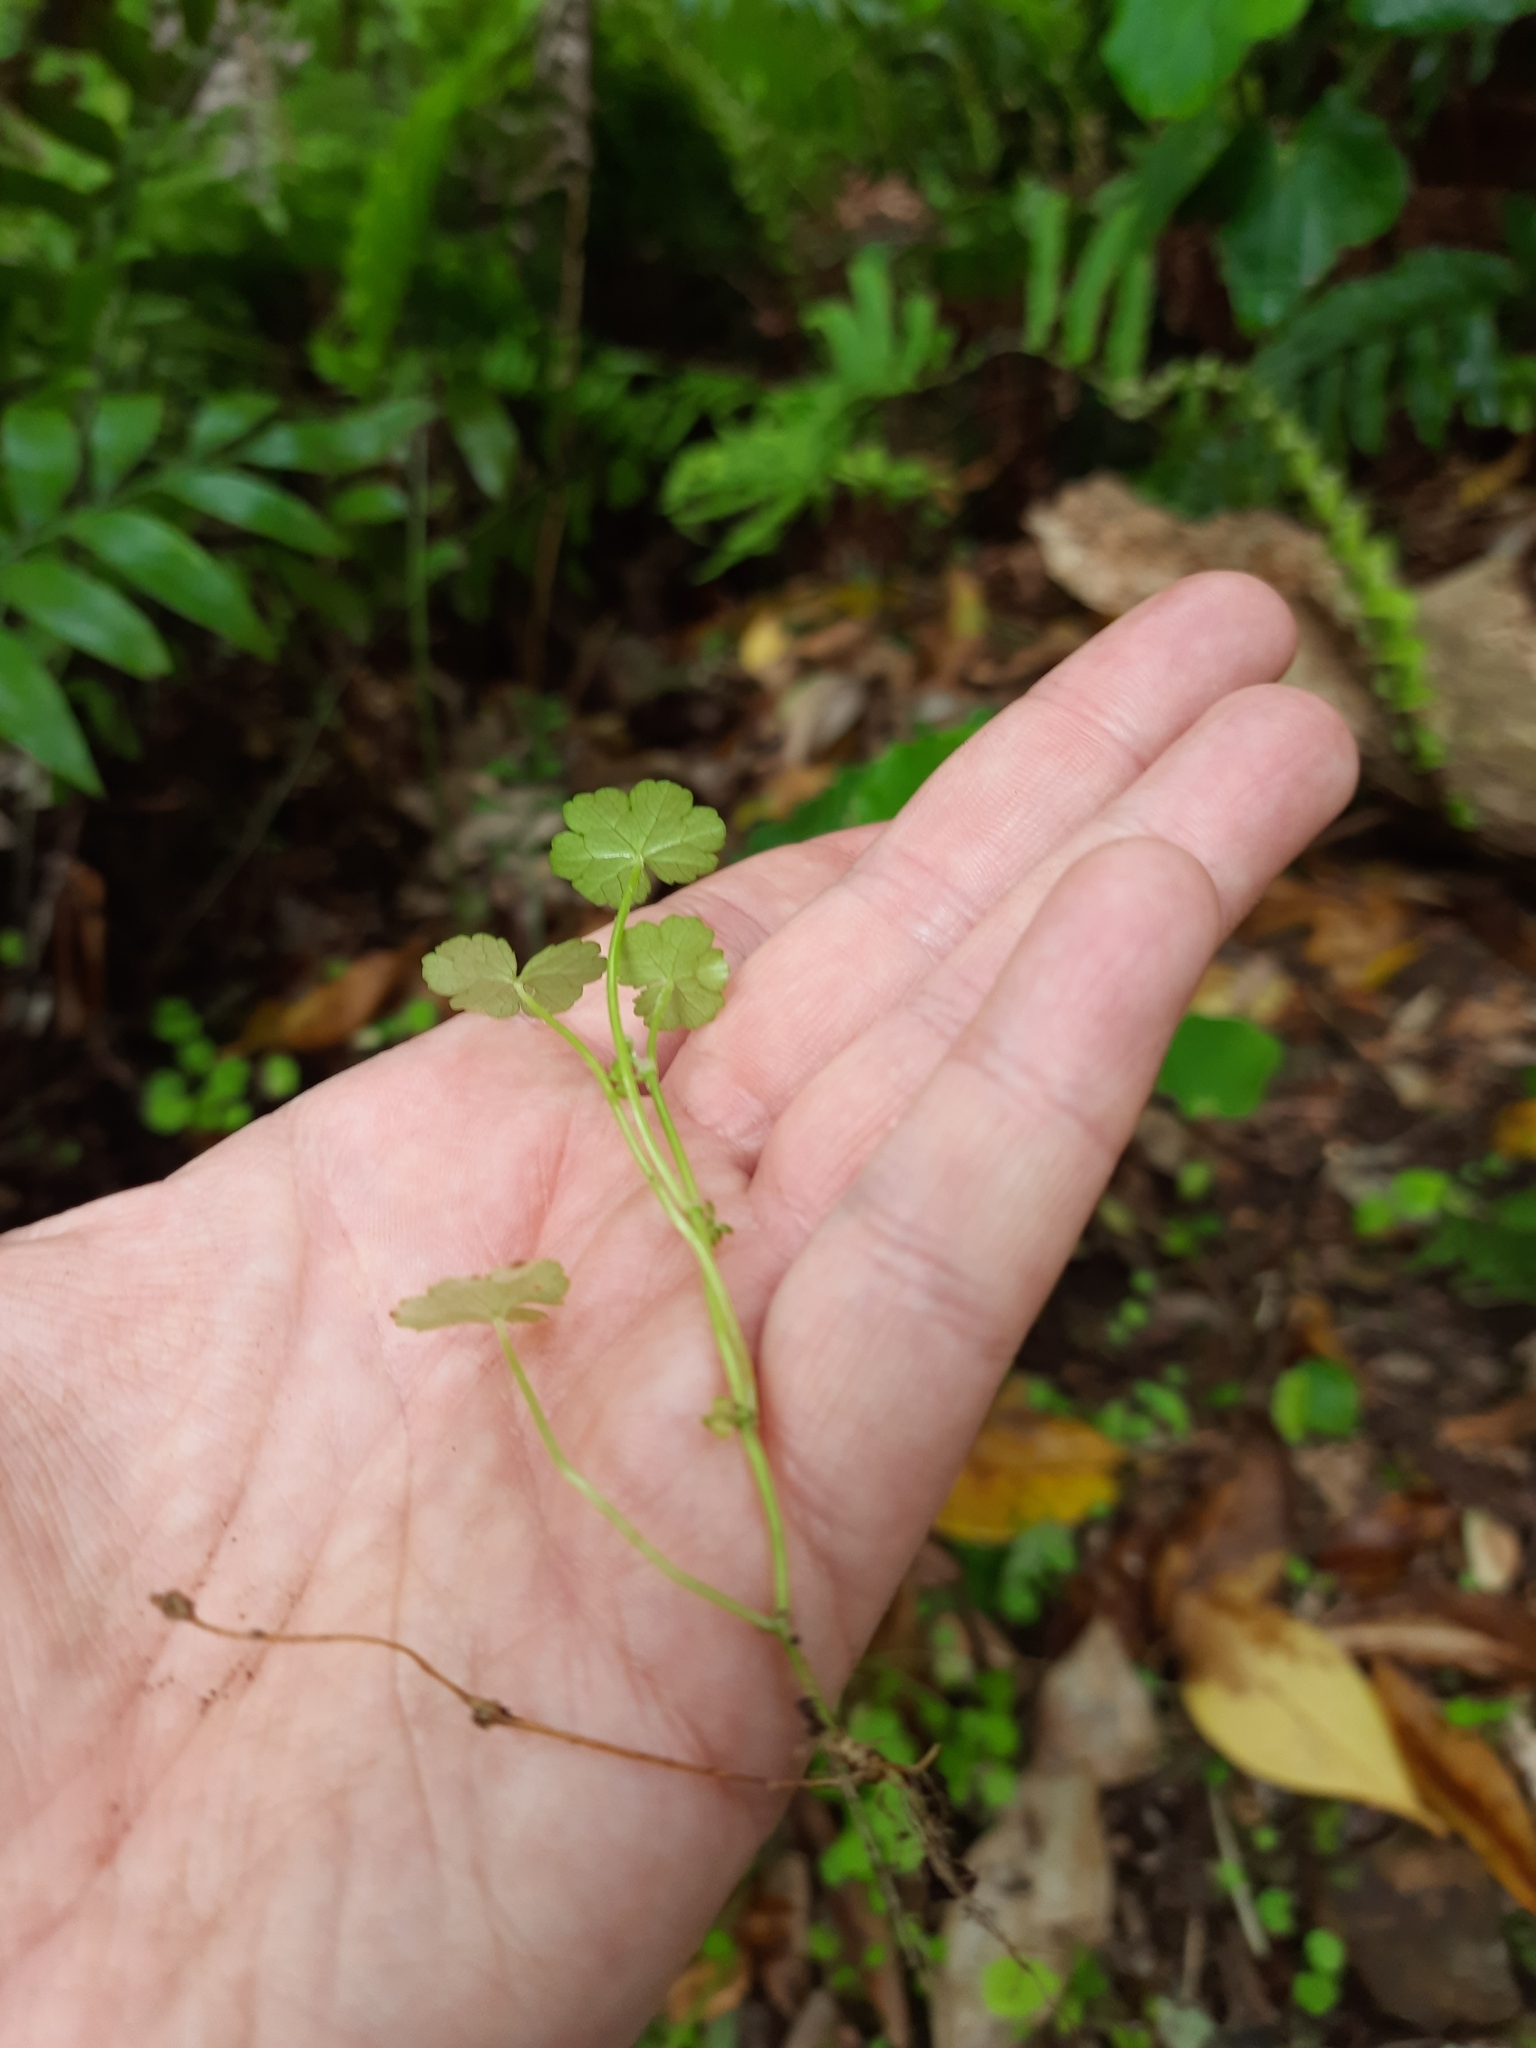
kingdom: Plantae
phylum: Tracheophyta
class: Magnoliopsida
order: Apiales
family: Araliaceae
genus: Hydrocotyle
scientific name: Hydrocotyle heteromeria
